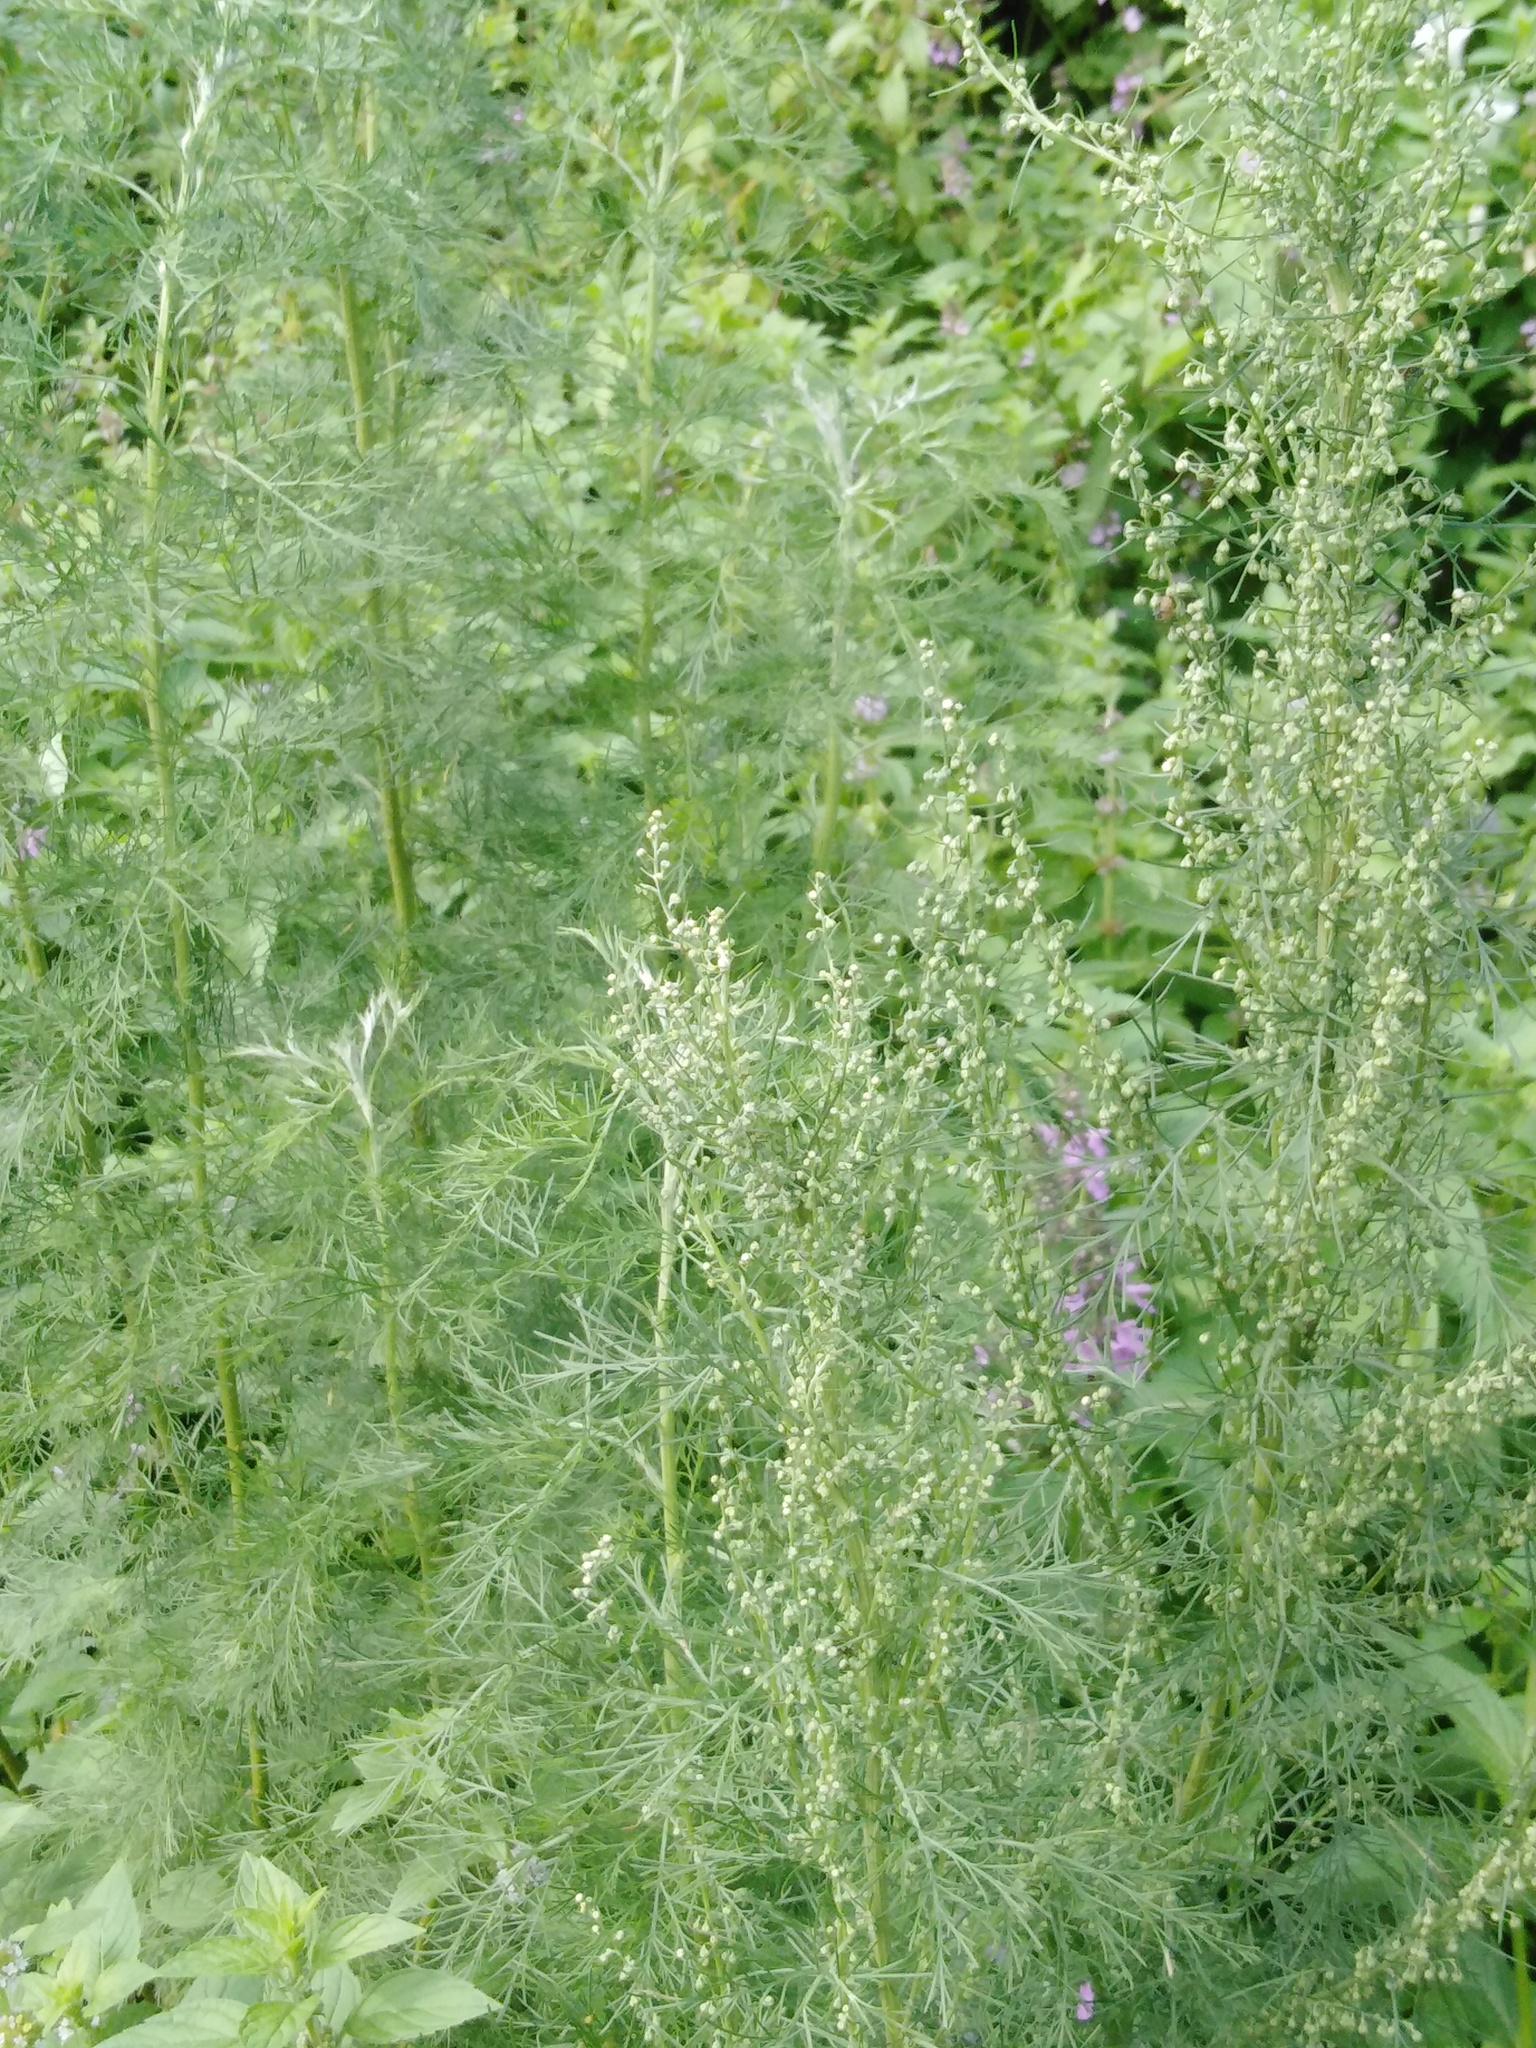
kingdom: Plantae
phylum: Tracheophyta
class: Magnoliopsida
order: Asterales
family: Asteraceae
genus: Artemisia
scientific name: Artemisia abrotanum
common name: Southernwood
